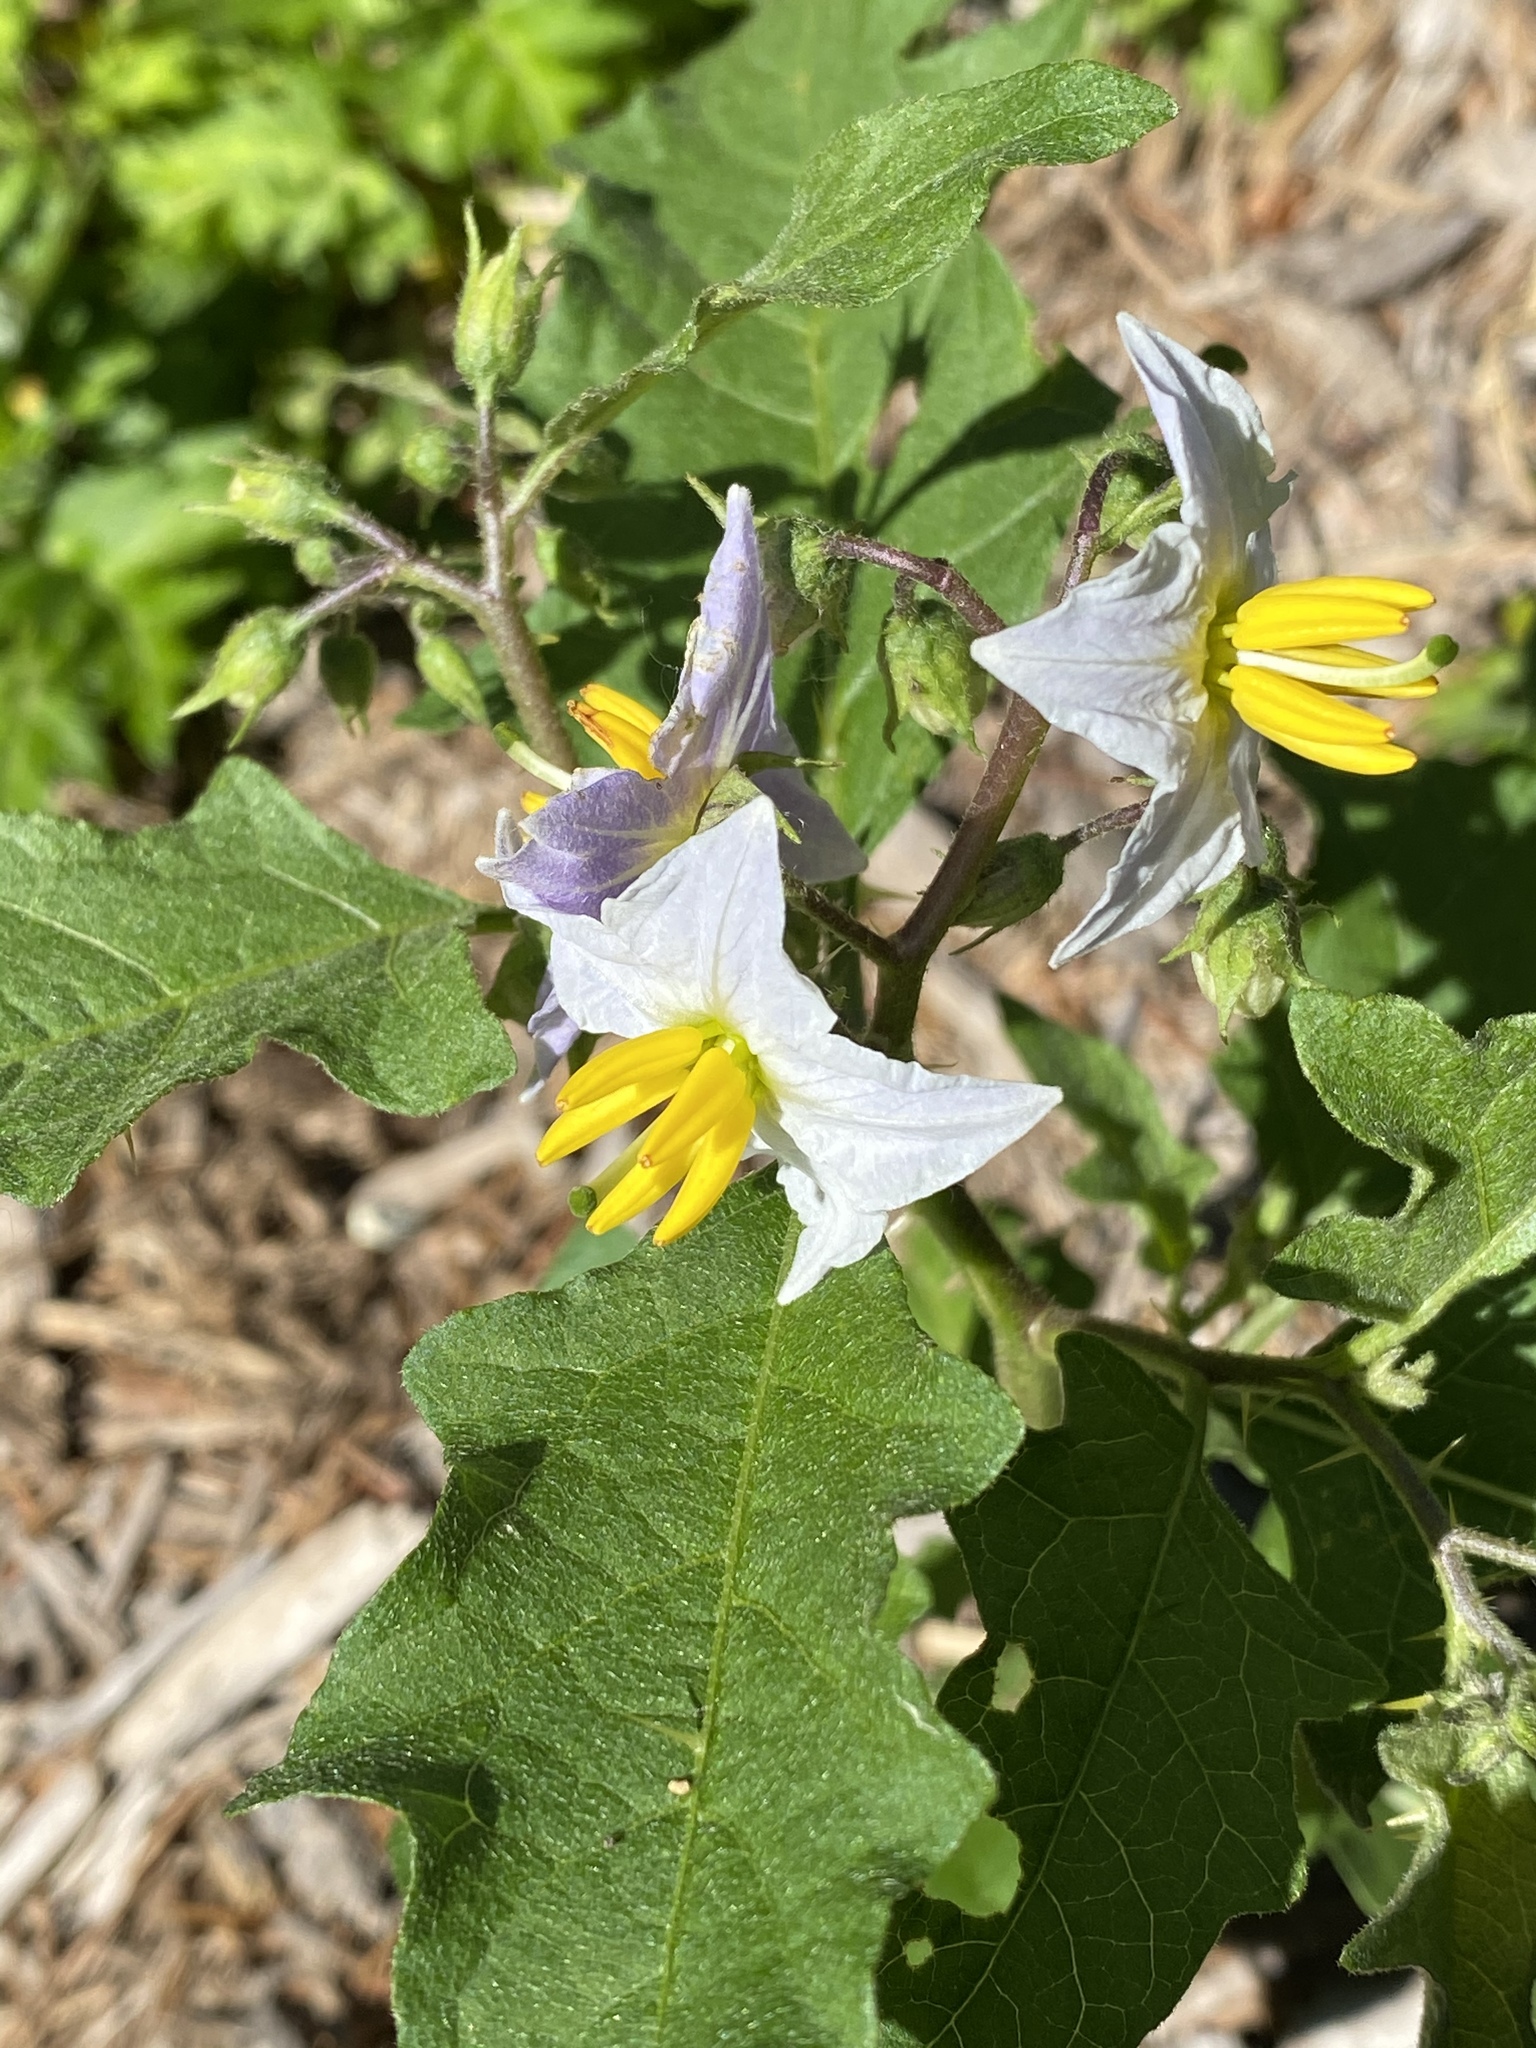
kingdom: Plantae
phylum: Tracheophyta
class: Magnoliopsida
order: Solanales
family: Solanaceae
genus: Solanum
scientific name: Solanum carolinense
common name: Horse-nettle
